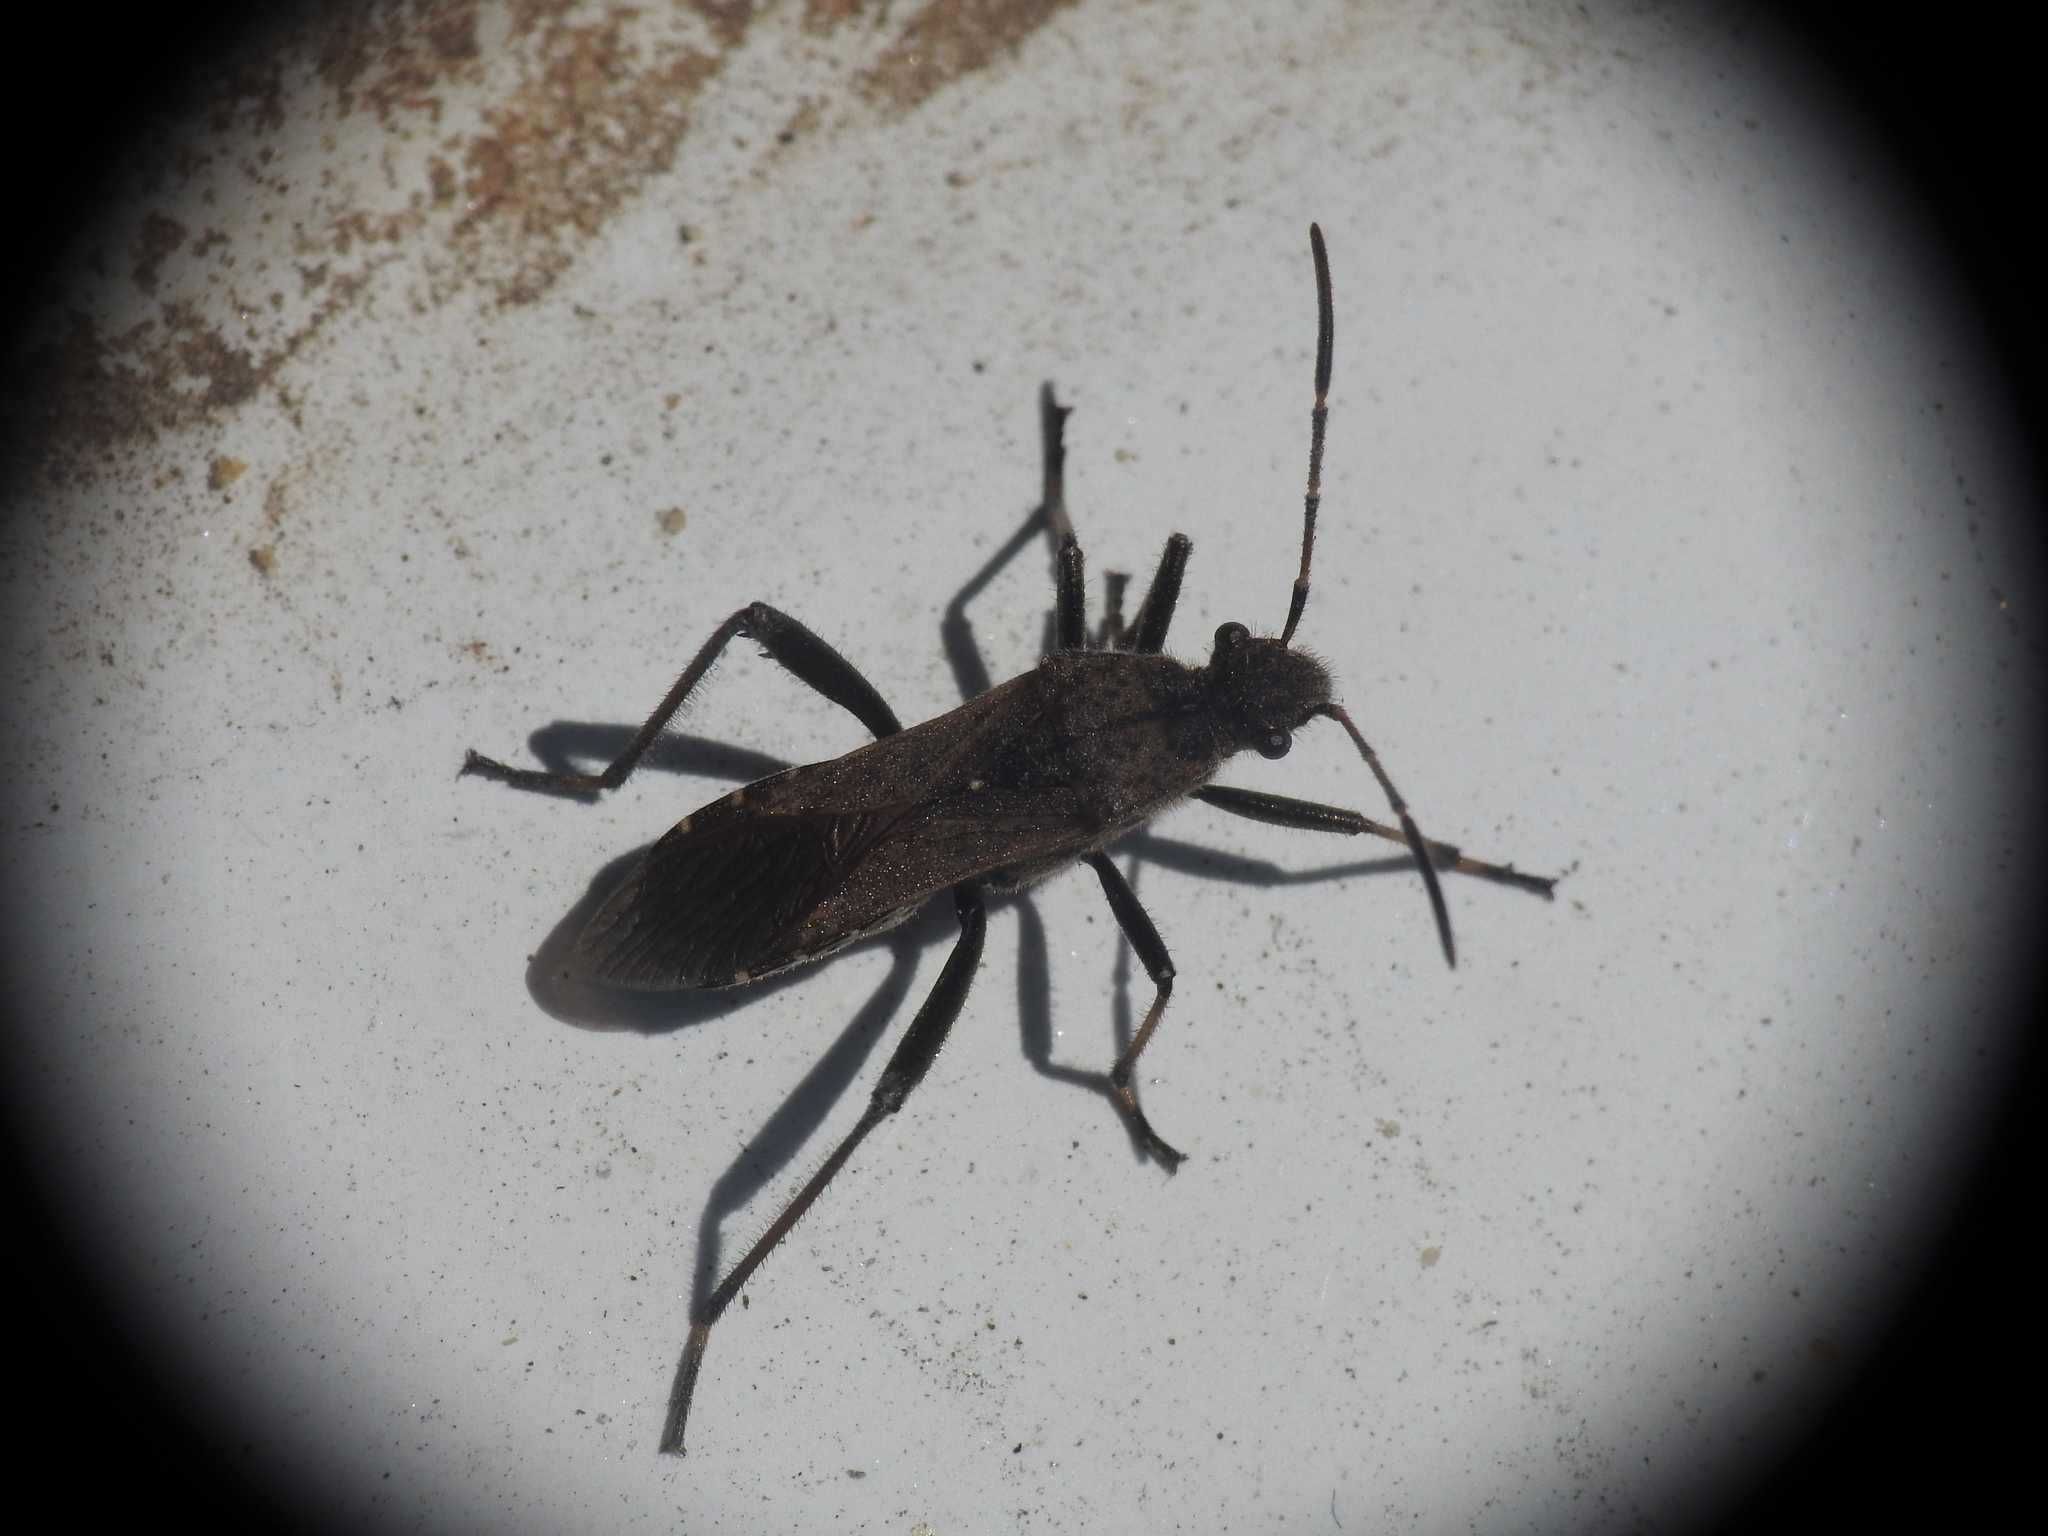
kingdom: Animalia
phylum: Arthropoda
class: Insecta
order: Hemiptera
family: Alydidae
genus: Alydus
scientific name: Alydus calcaratus
